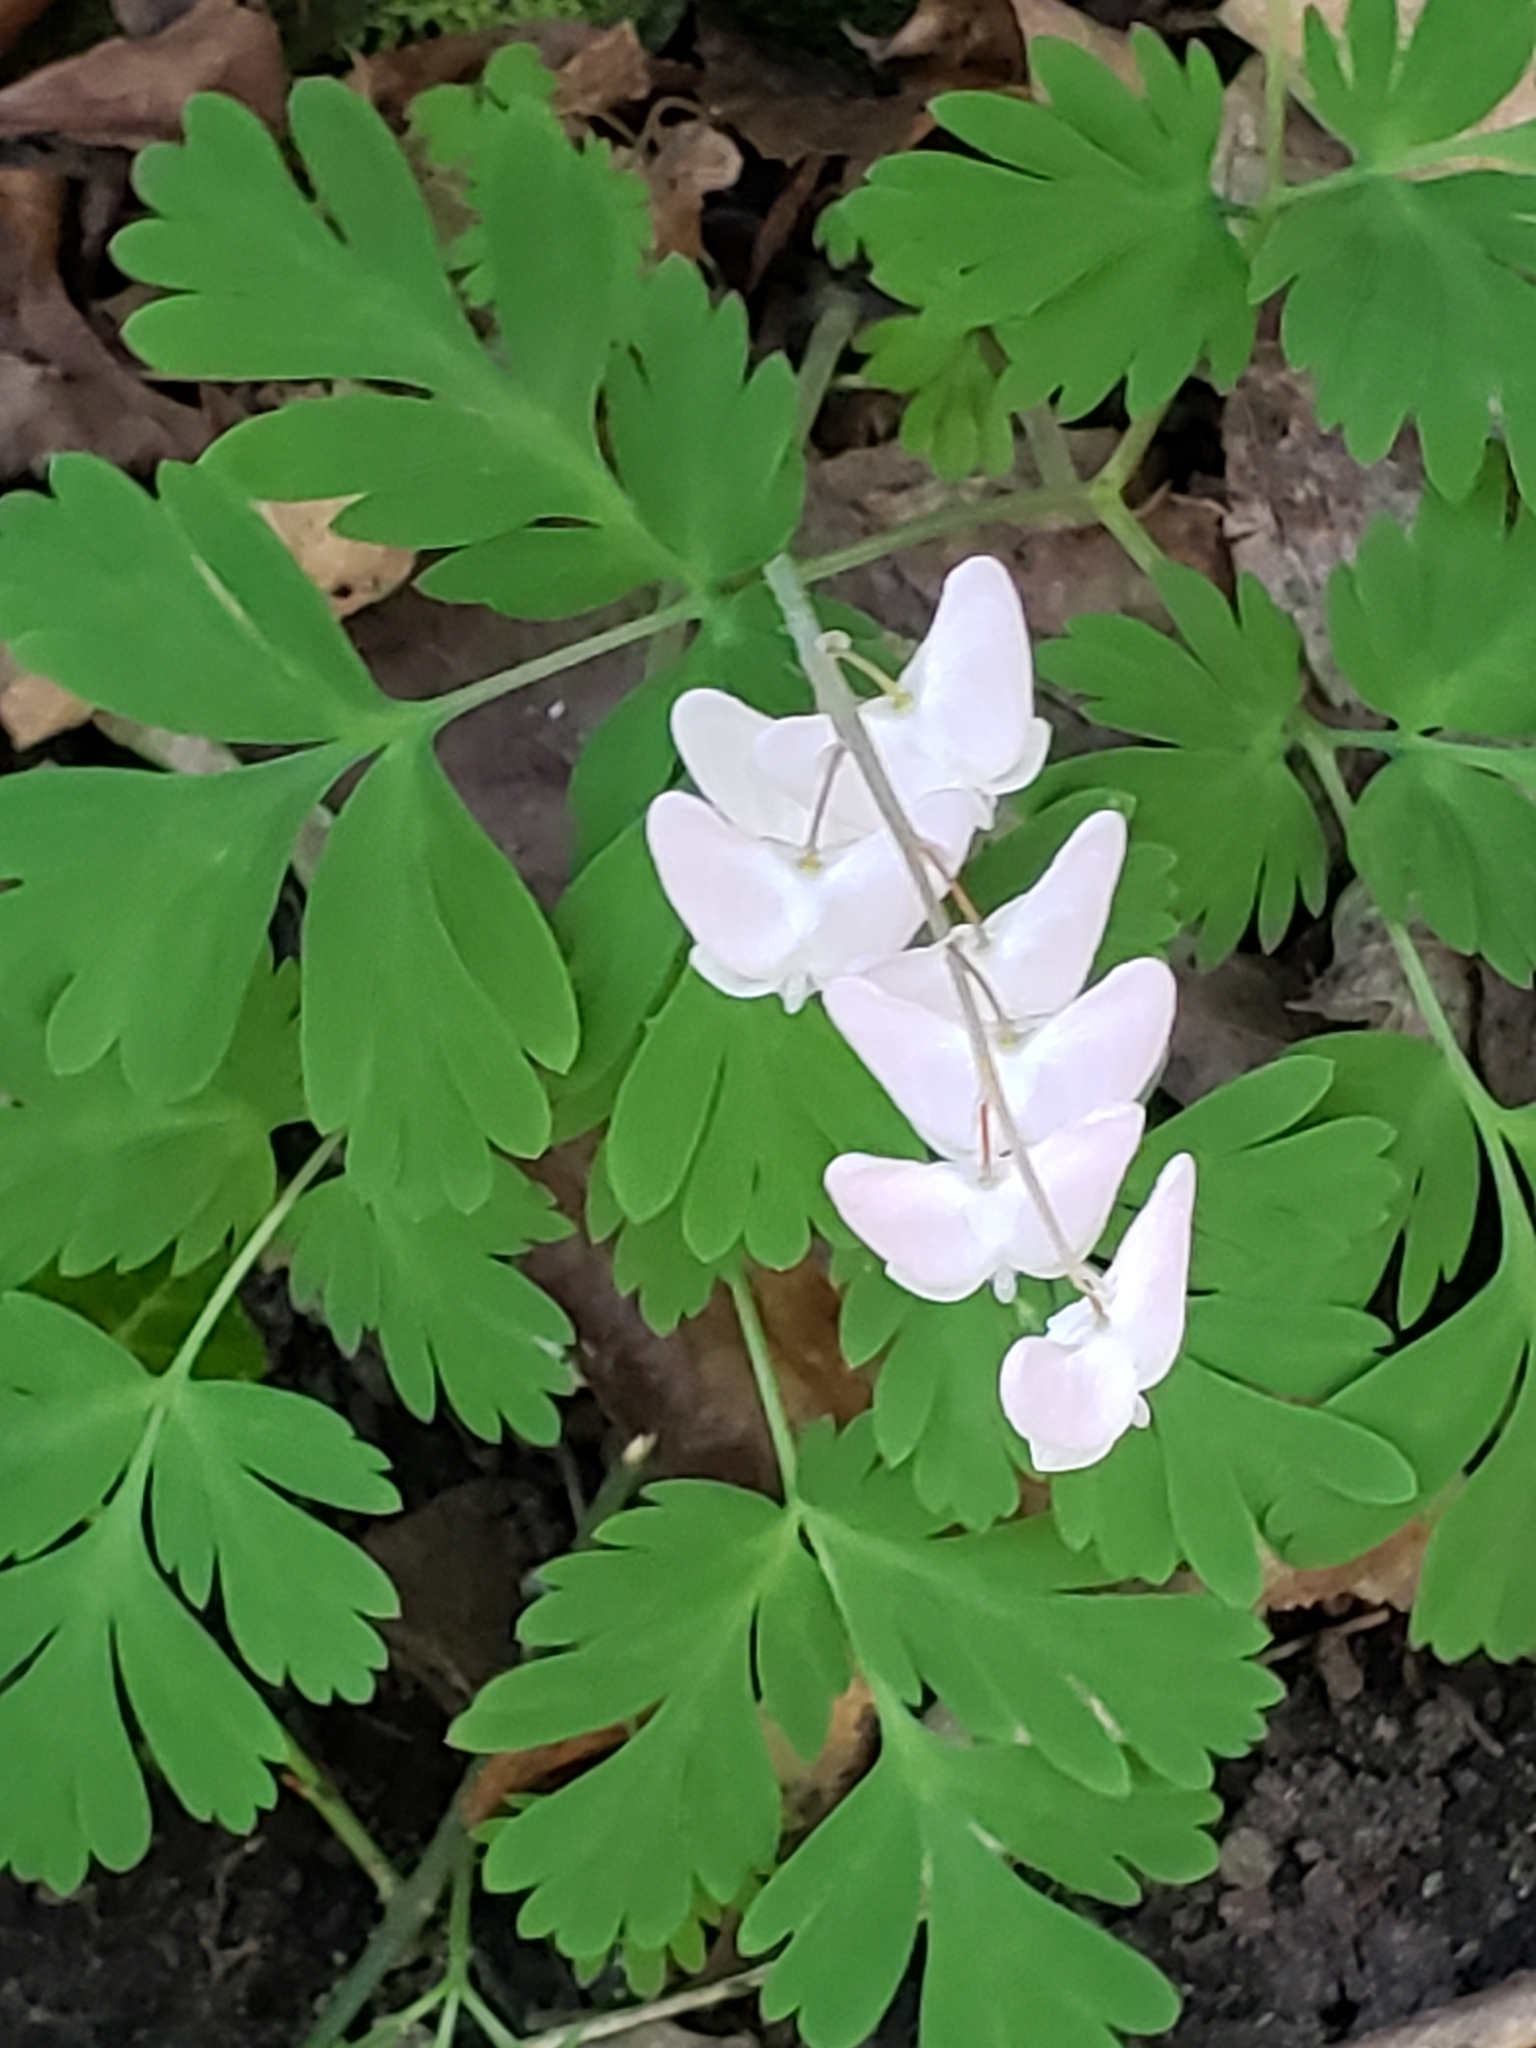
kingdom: Plantae
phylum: Tracheophyta
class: Magnoliopsida
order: Ranunculales
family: Papaveraceae
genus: Dicentra
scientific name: Dicentra cucullaria
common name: Dutchman's breeches
